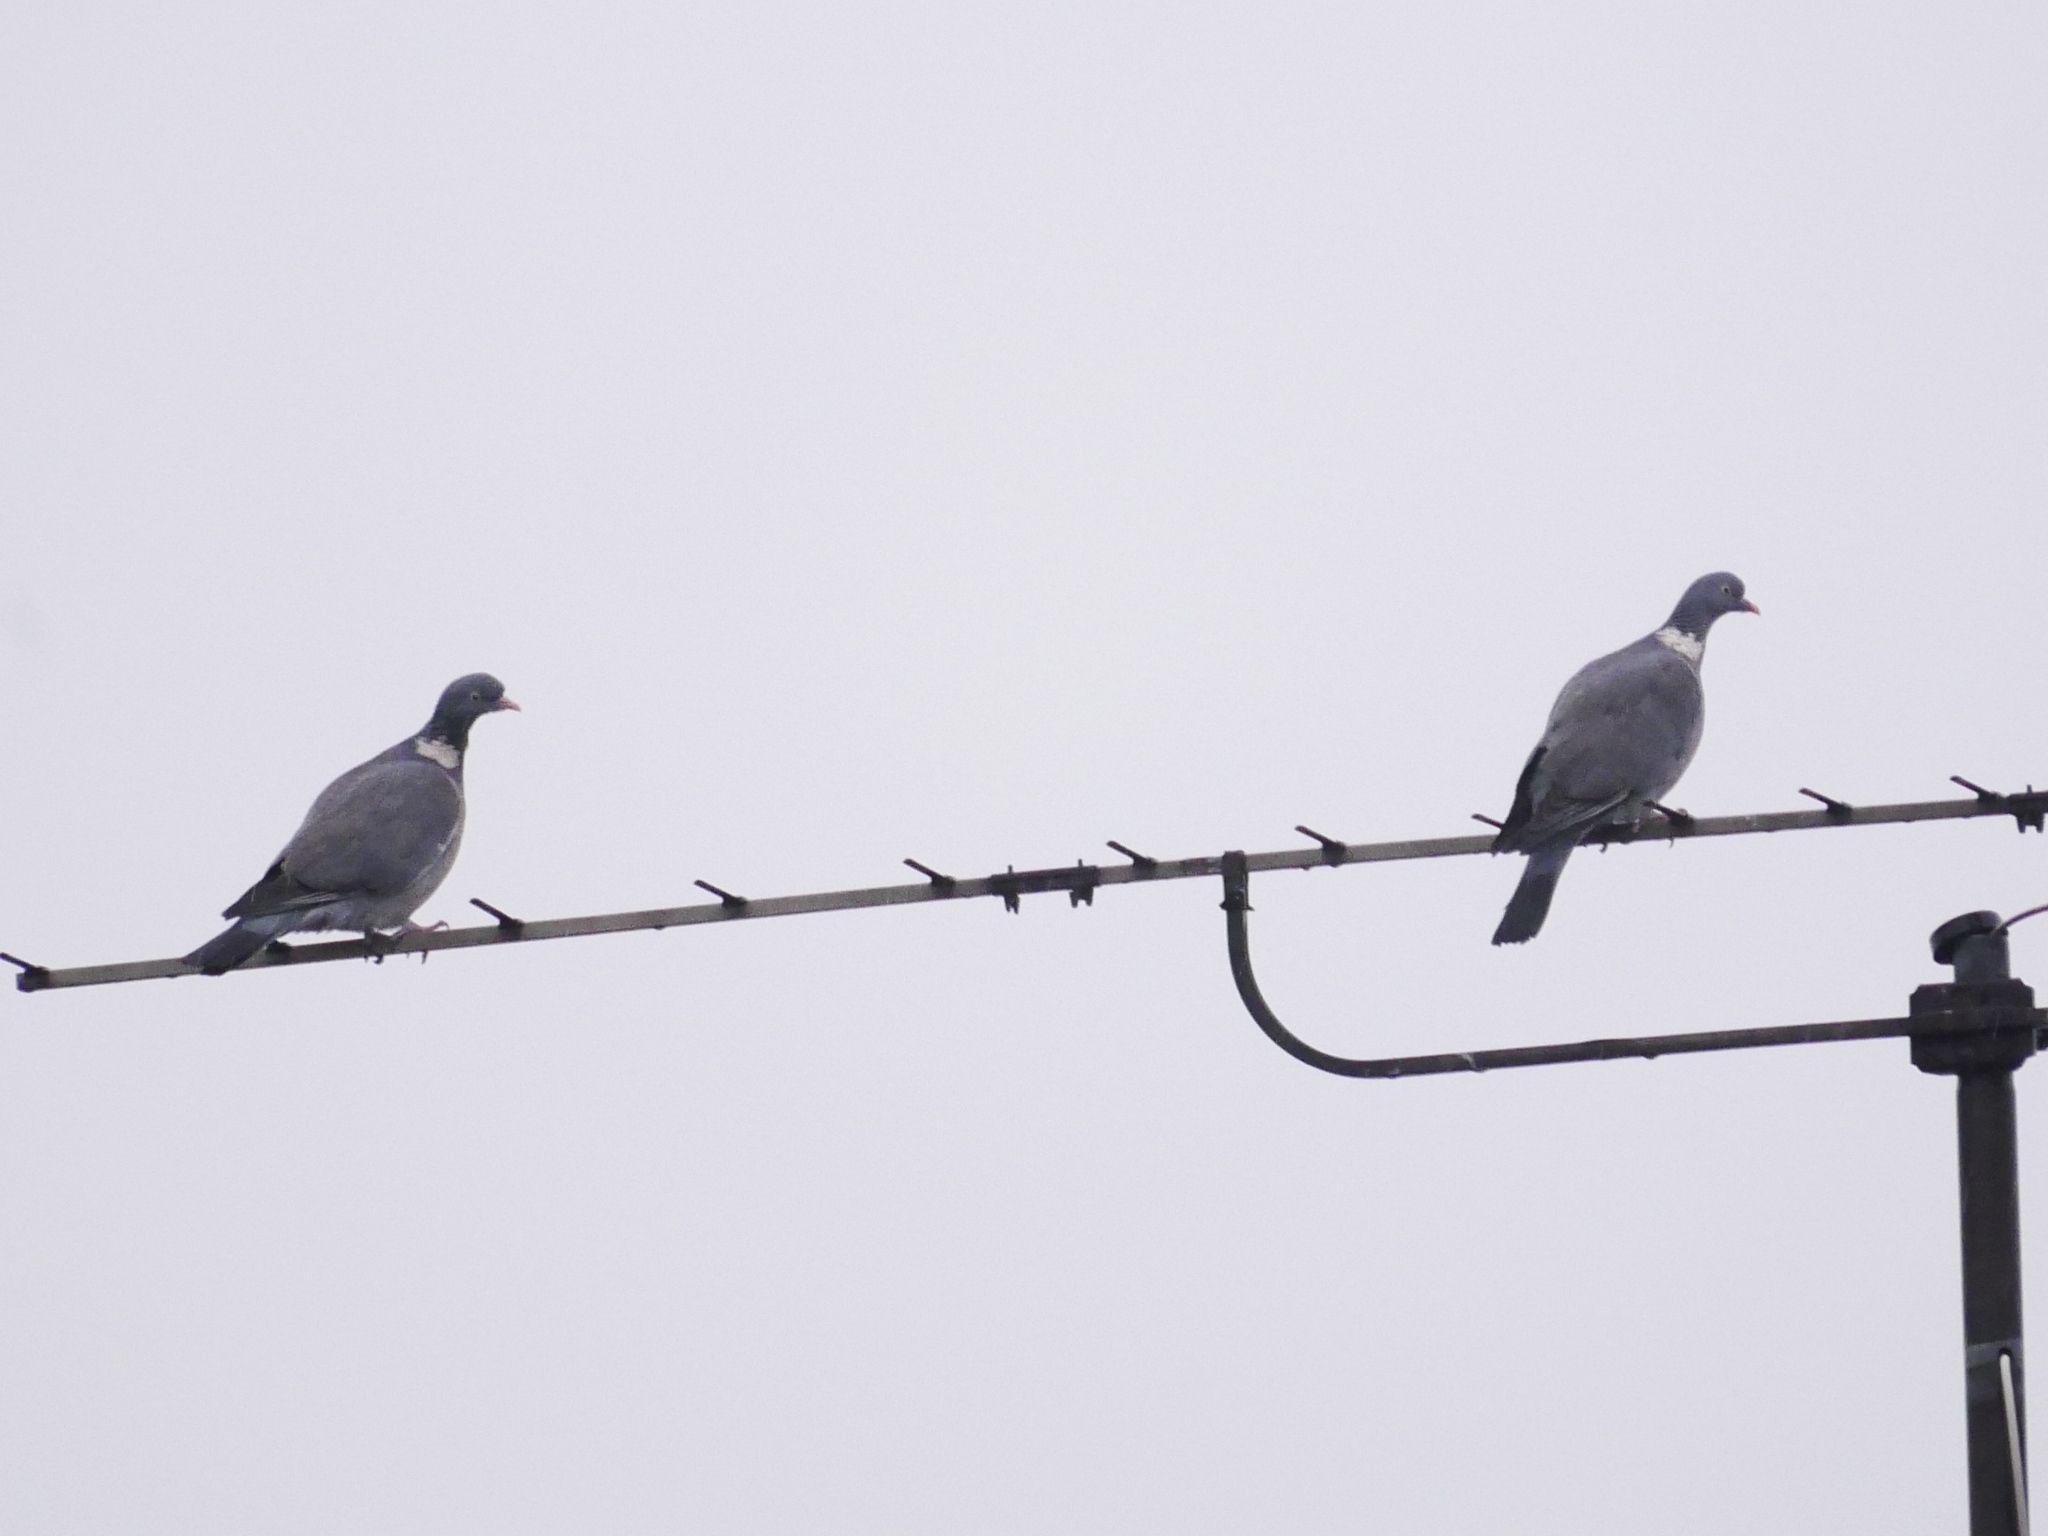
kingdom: Animalia
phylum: Chordata
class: Aves
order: Columbiformes
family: Columbidae
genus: Columba
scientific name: Columba palumbus
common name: Common wood pigeon
